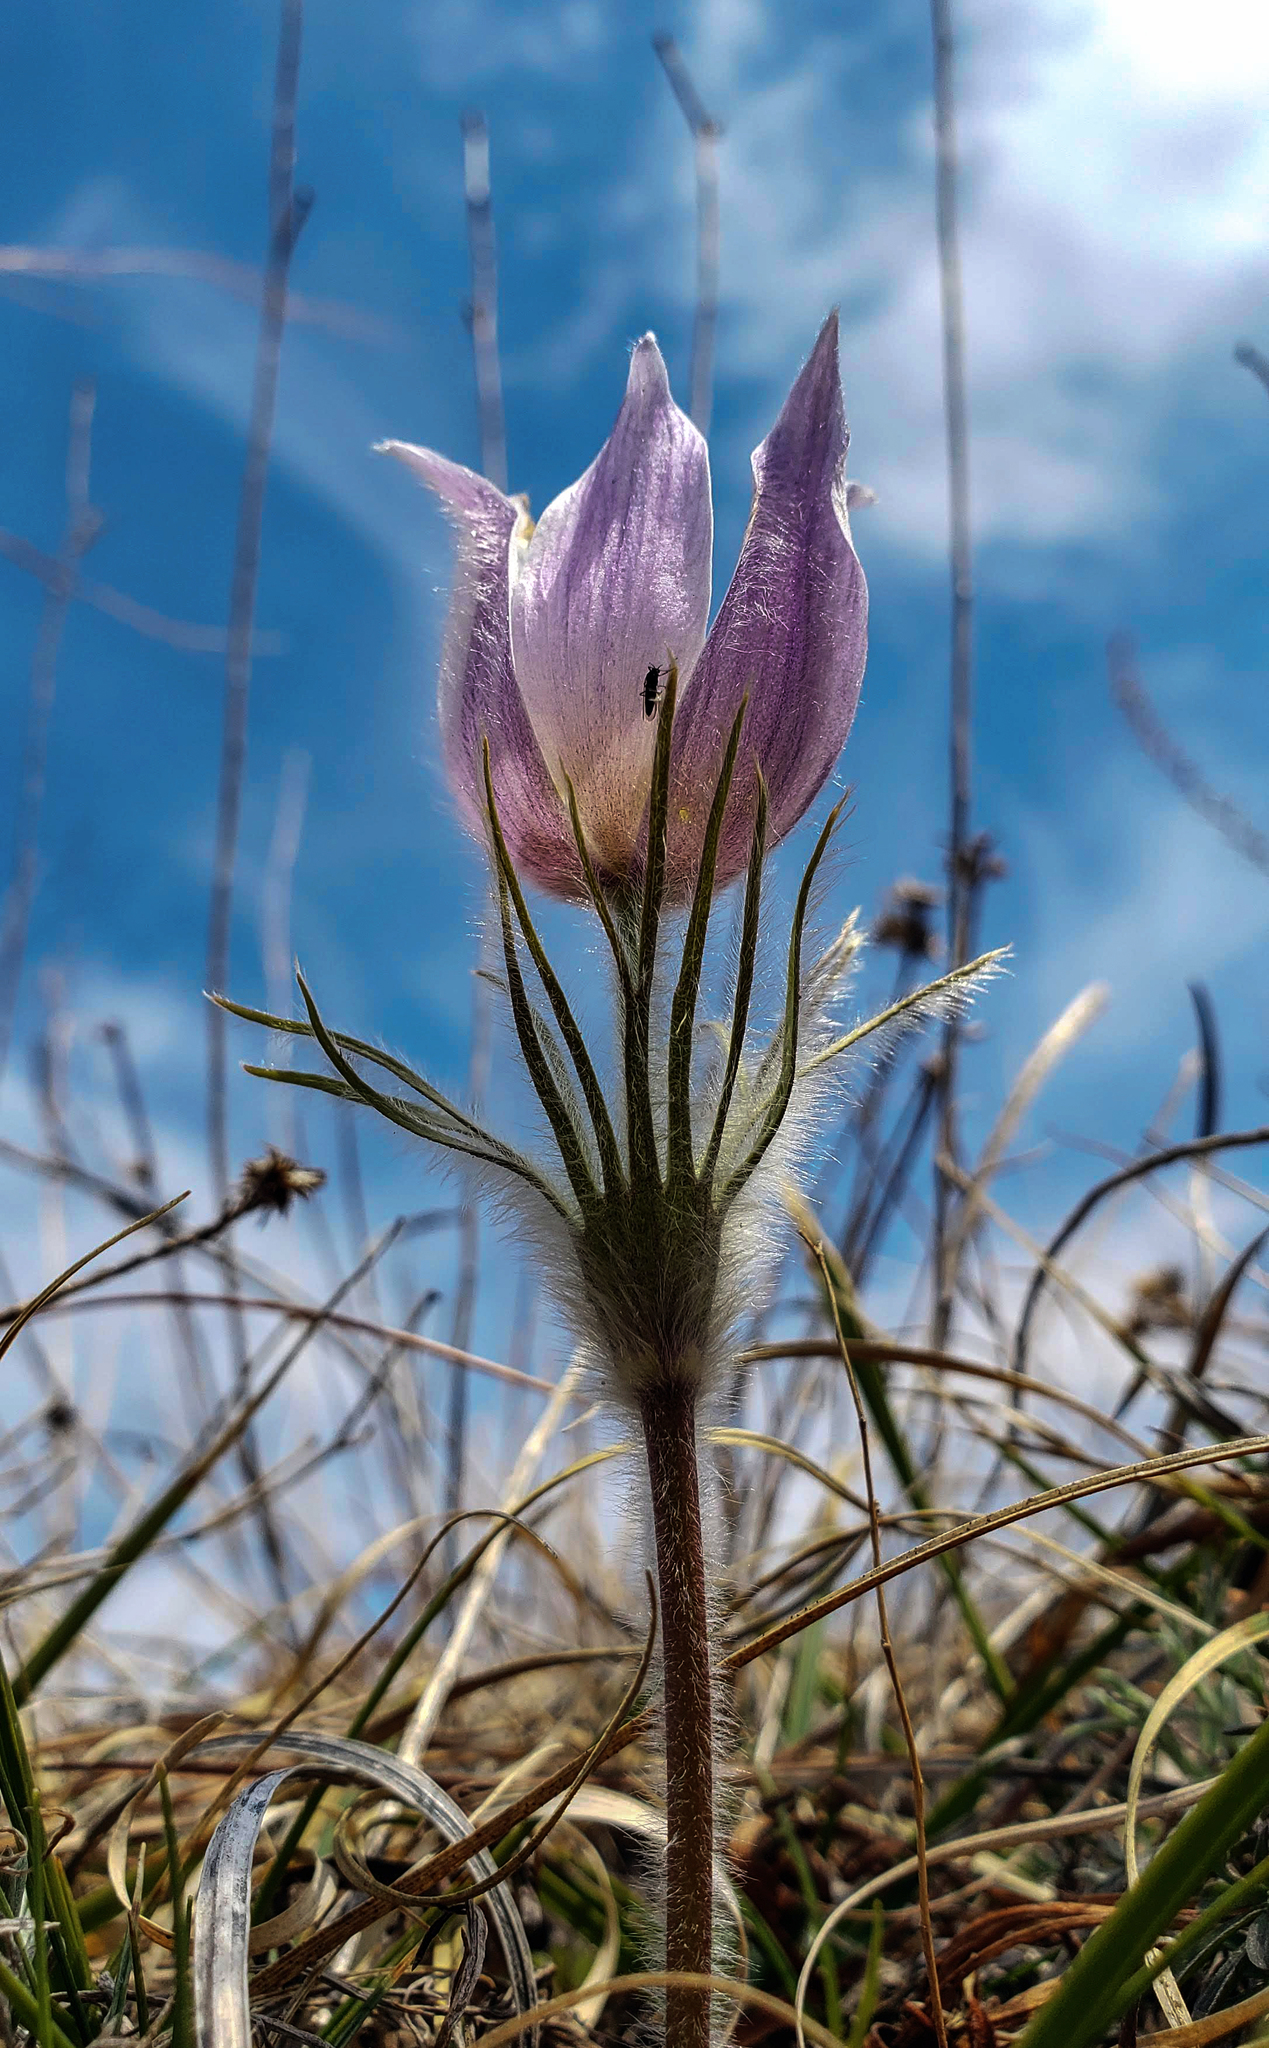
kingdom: Plantae
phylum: Tracheophyta
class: Magnoliopsida
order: Ranunculales
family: Ranunculaceae
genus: Pulsatilla
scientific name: Pulsatilla nuttalliana
